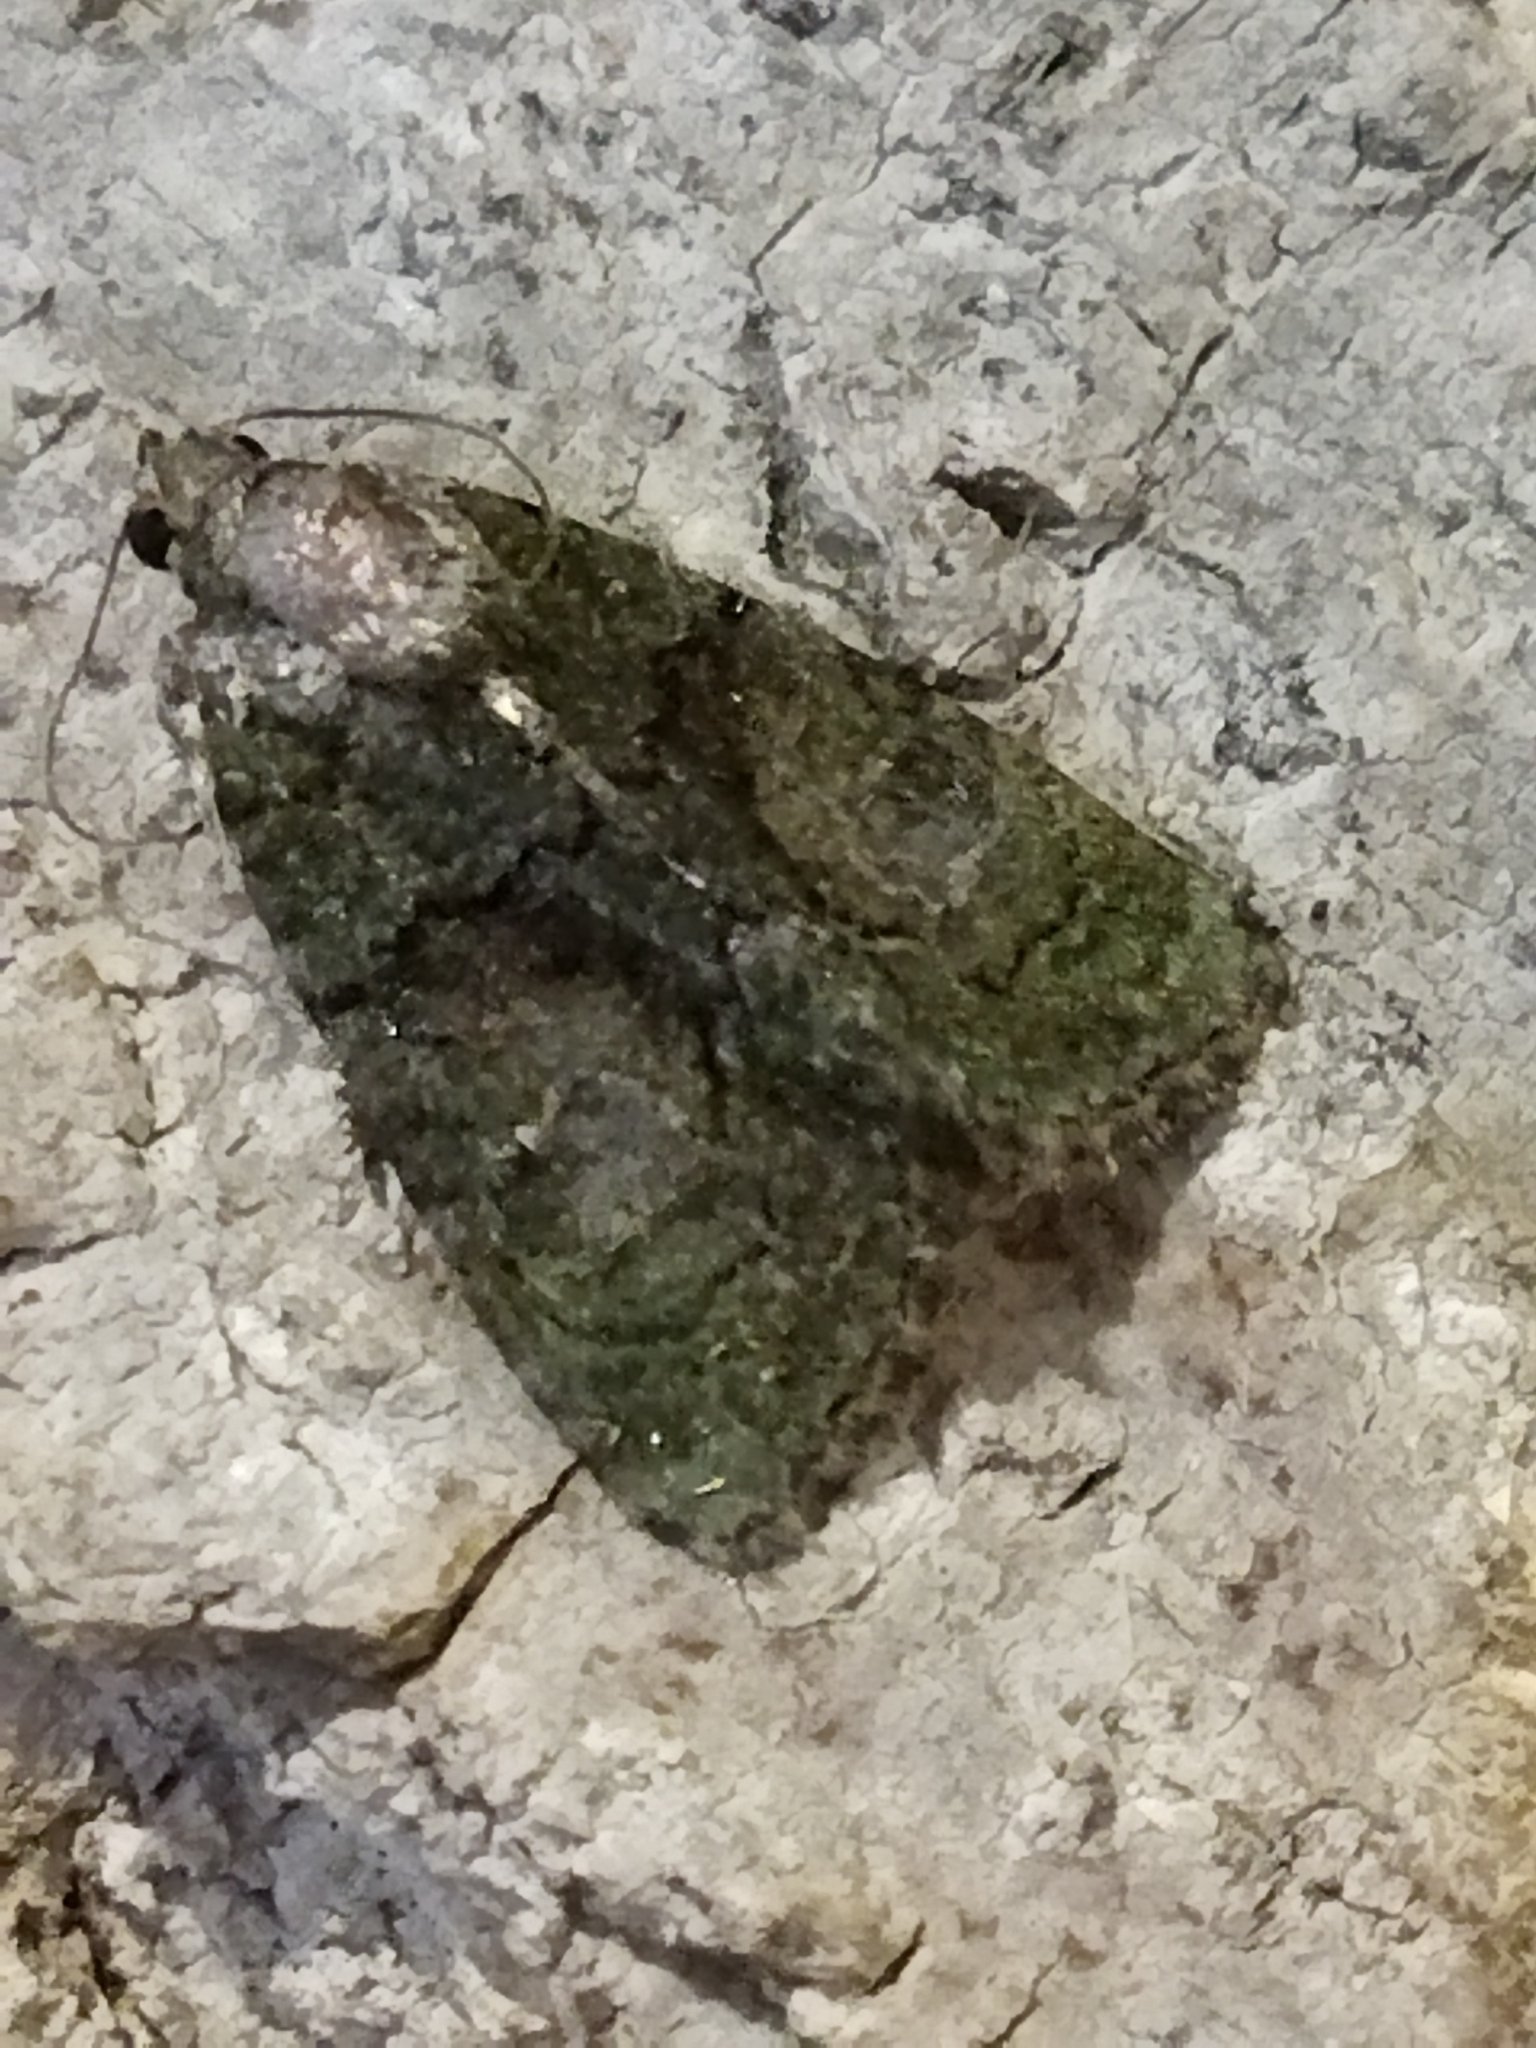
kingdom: Animalia
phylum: Arthropoda
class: Insecta
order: Lepidoptera
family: Noctuidae
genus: Cryphia
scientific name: Cryphia
